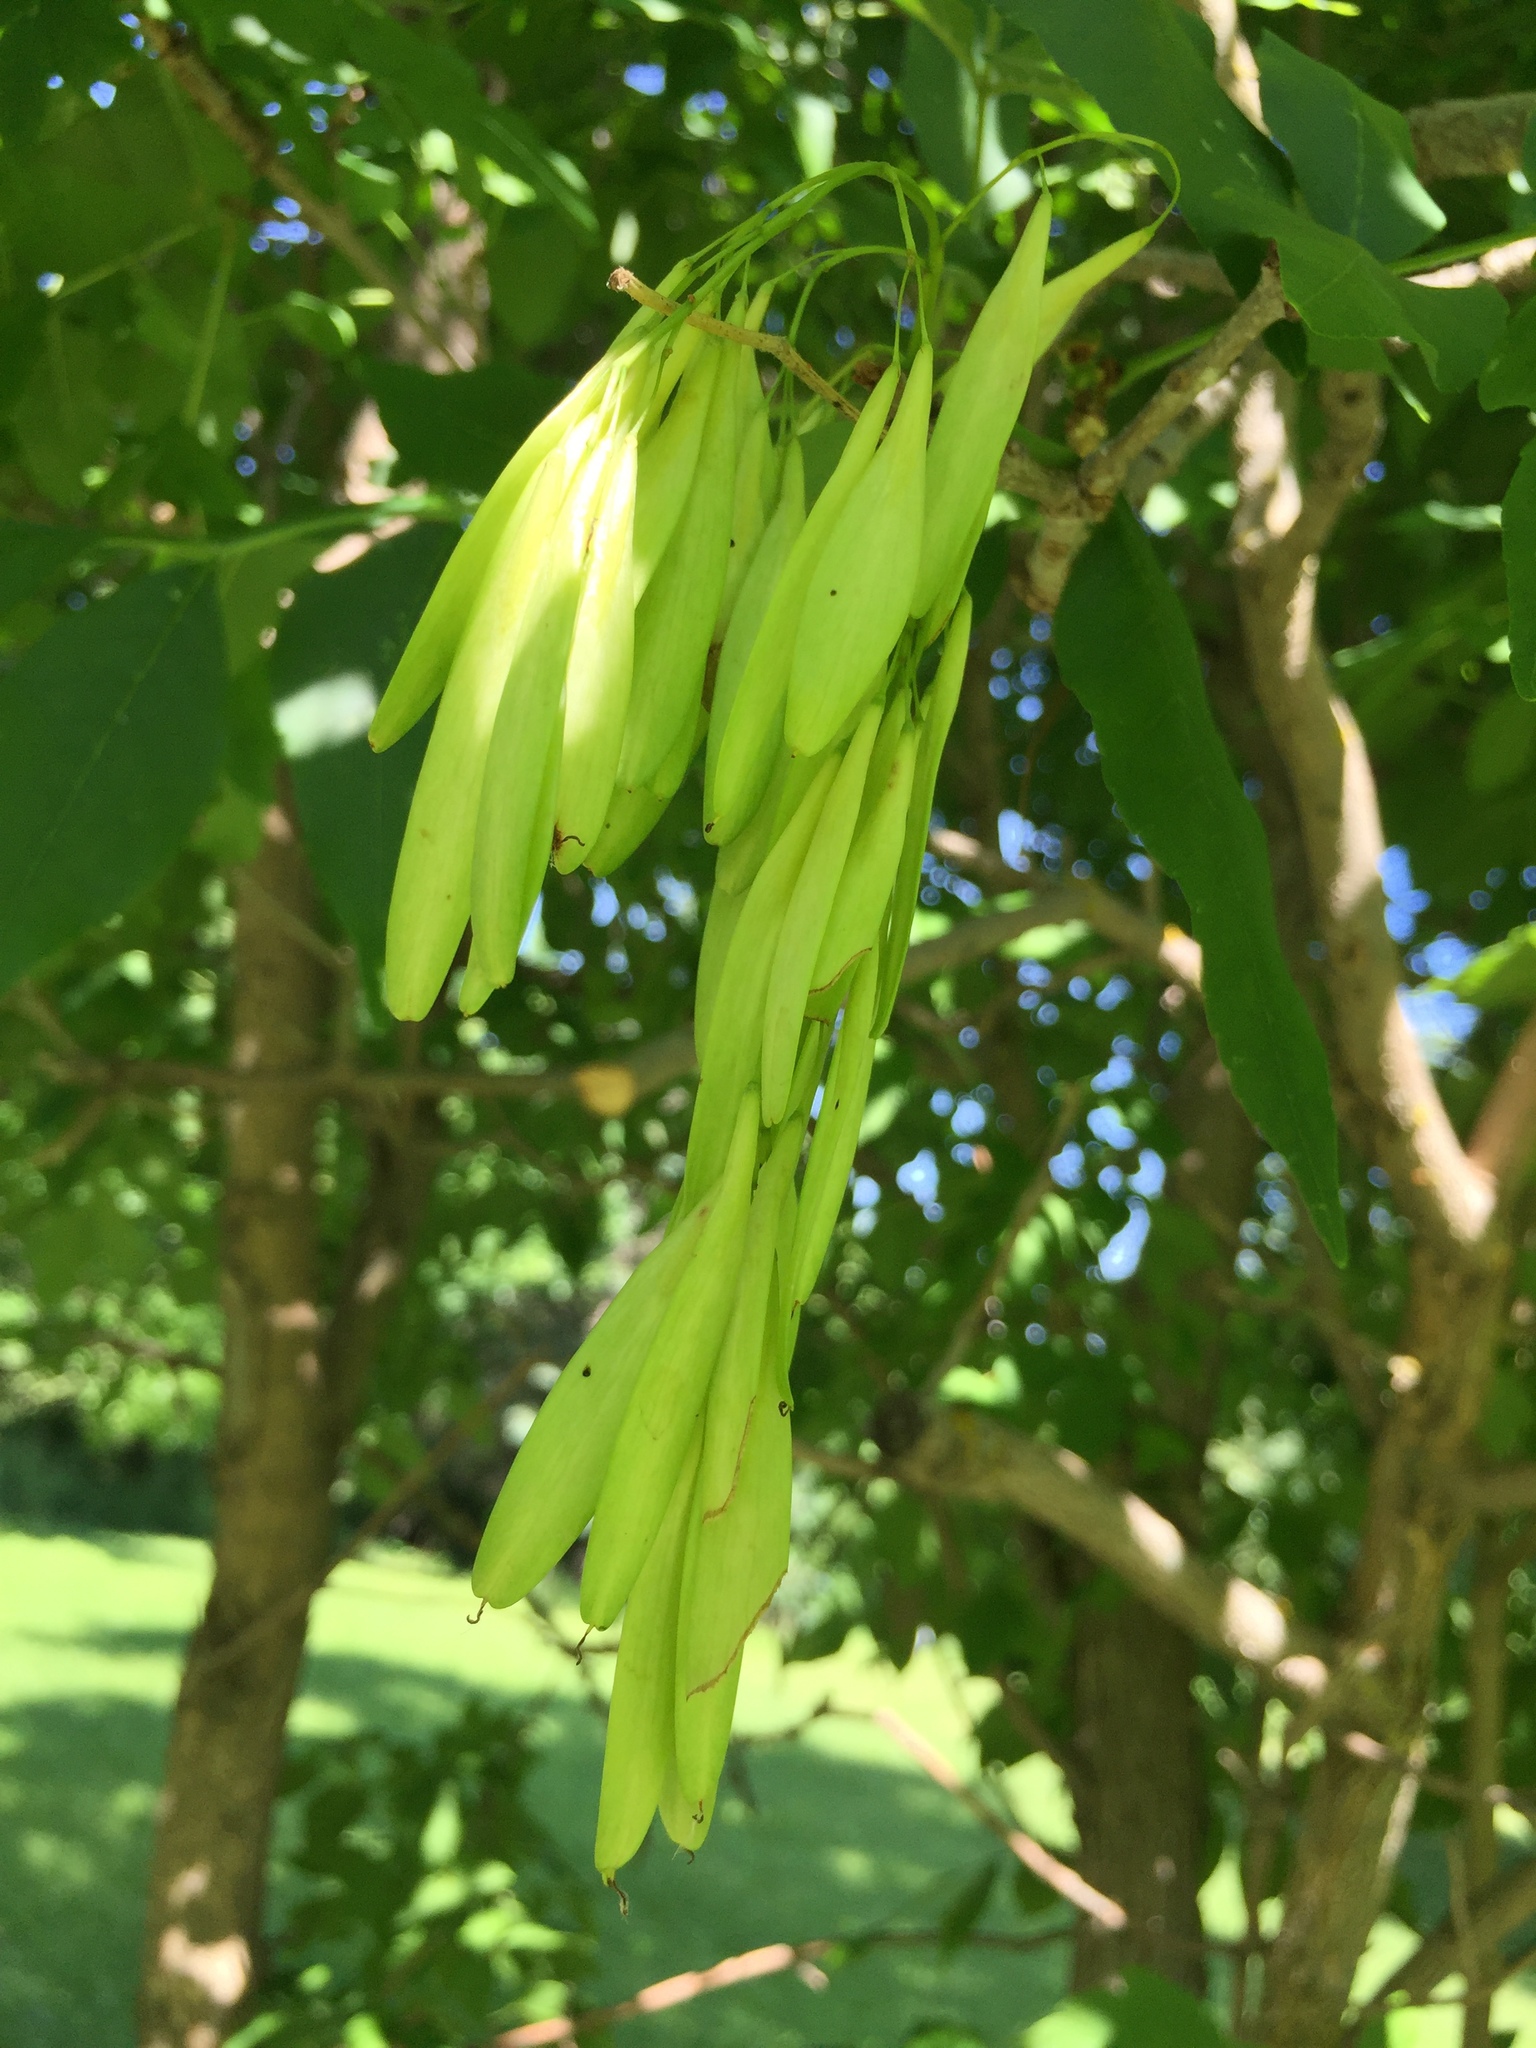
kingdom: Plantae
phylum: Tracheophyta
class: Magnoliopsida
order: Lamiales
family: Oleaceae
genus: Fraxinus
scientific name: Fraxinus pennsylvanica
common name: Green ash
